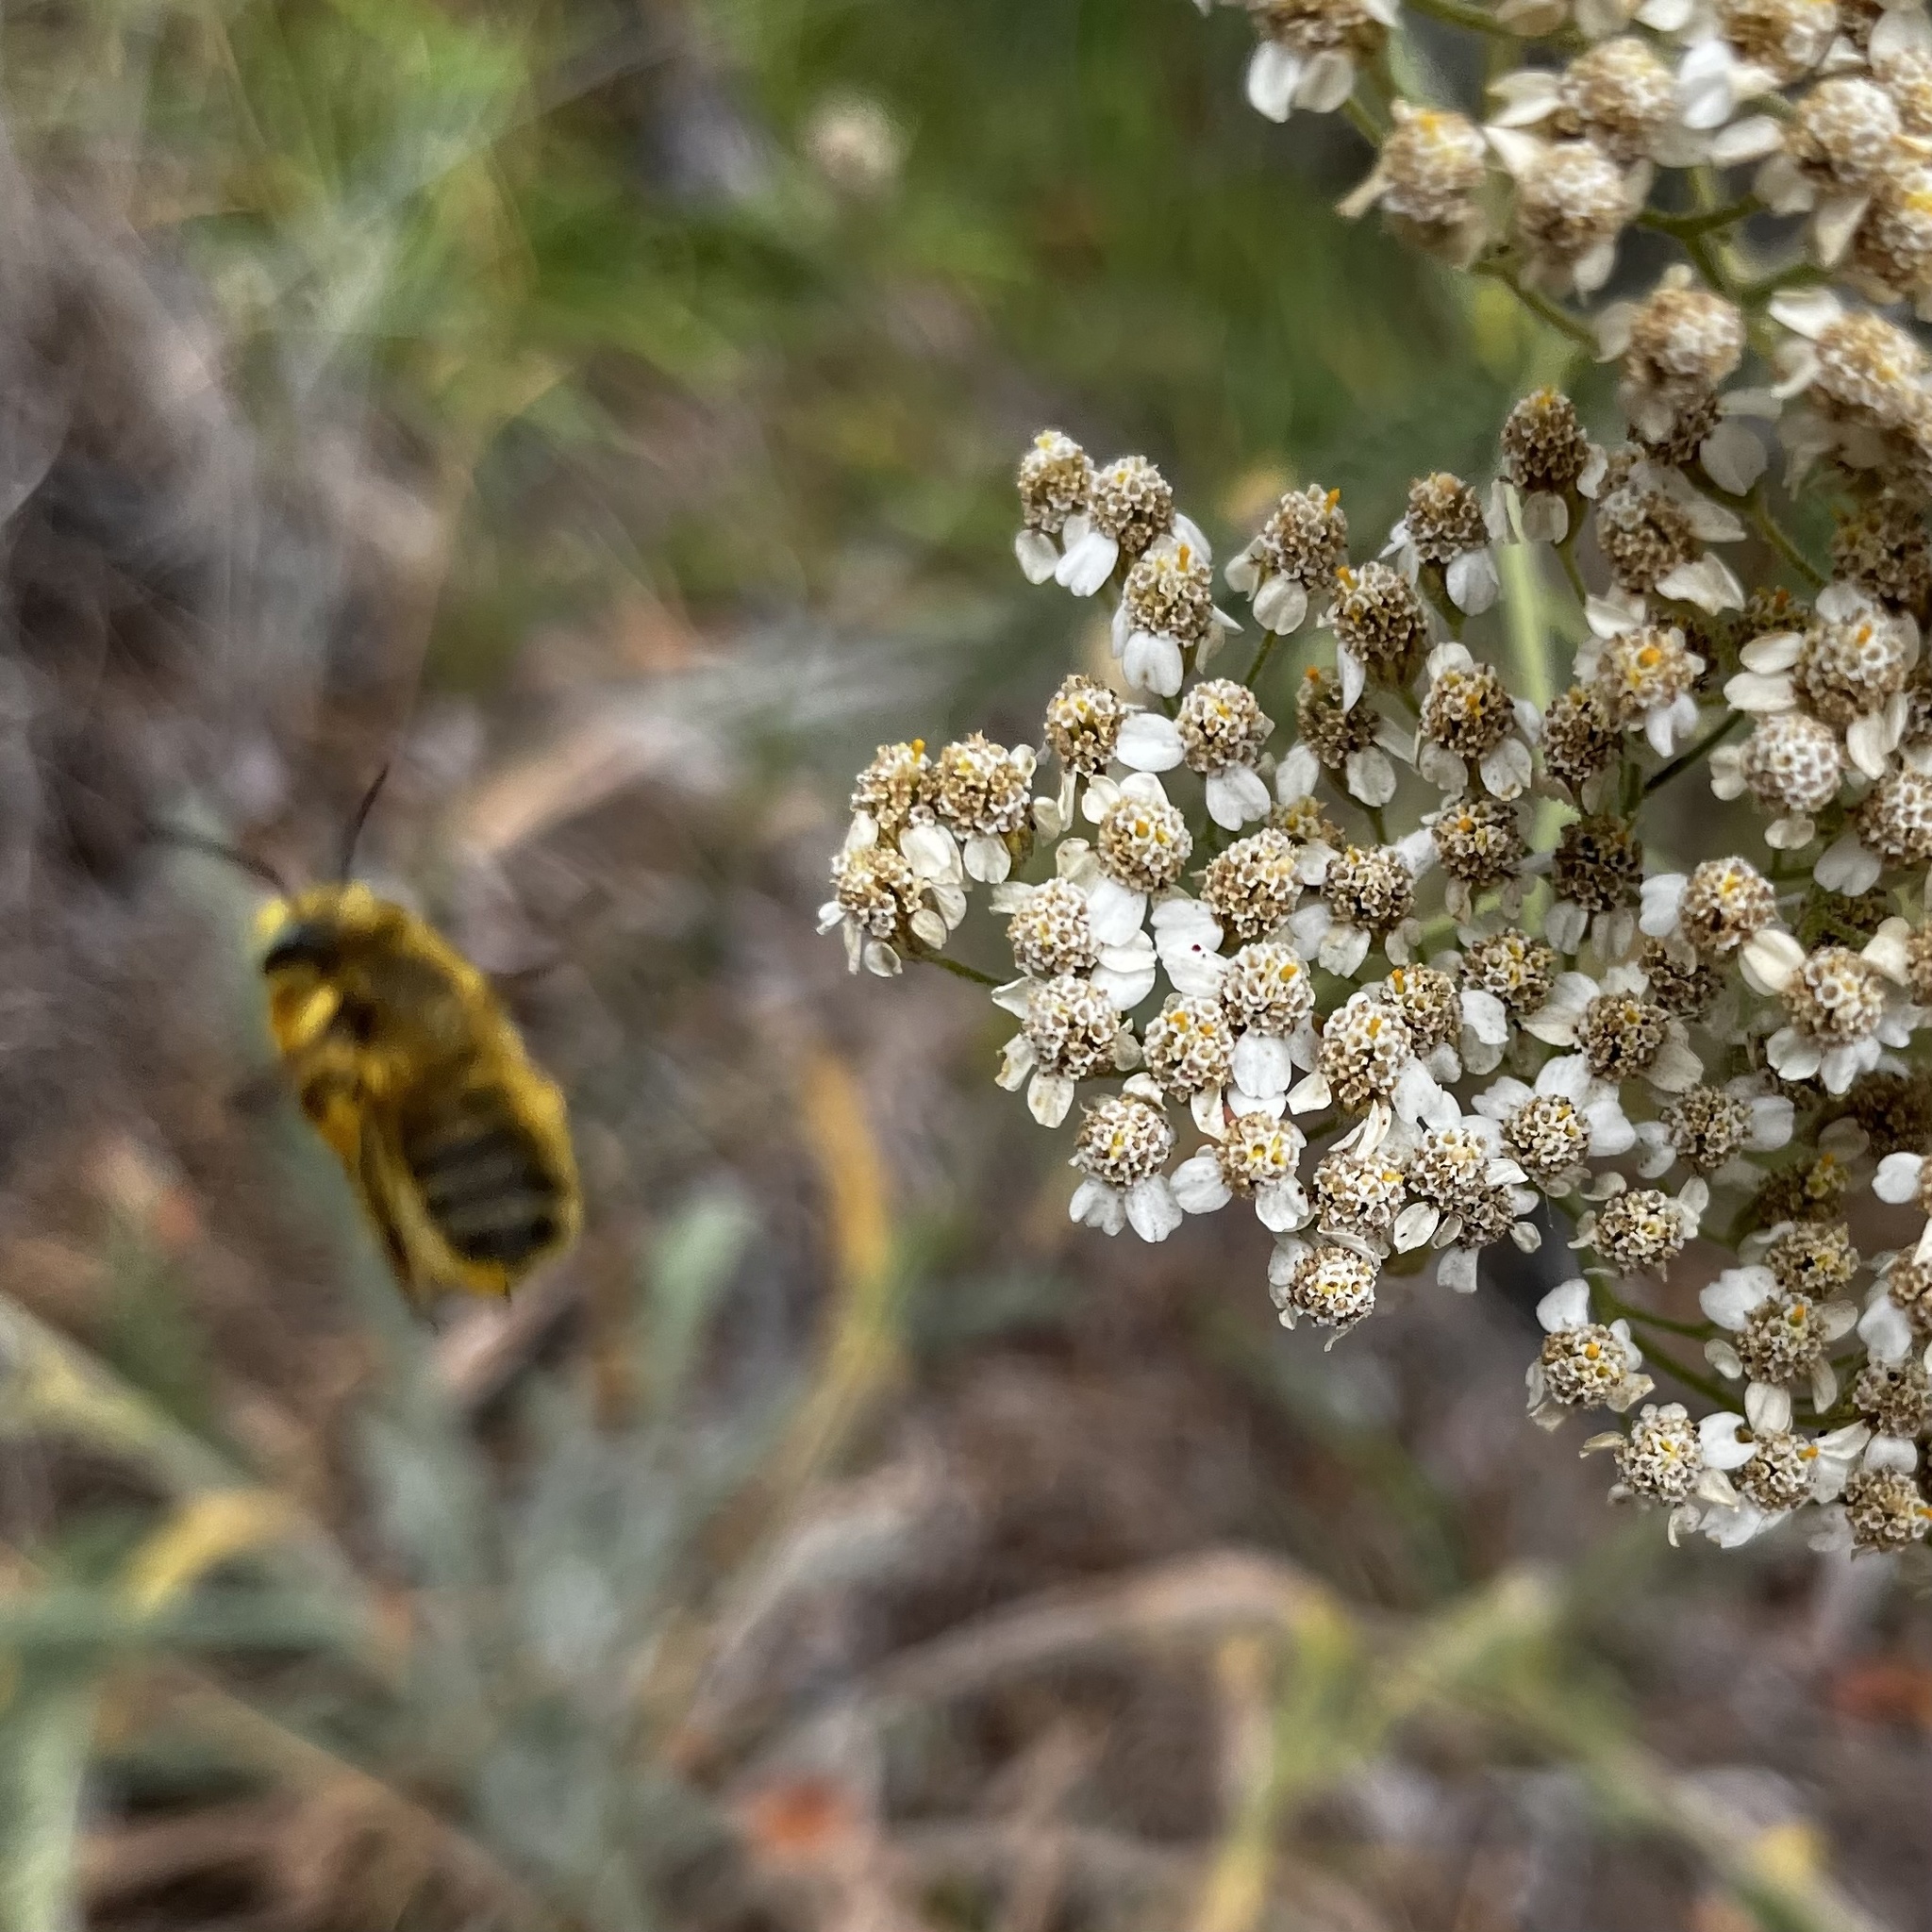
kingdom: Animalia
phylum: Arthropoda
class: Insecta
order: Hymenoptera
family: Megachilidae
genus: Megachile
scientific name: Megachile perihirta
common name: Western leafcutter
